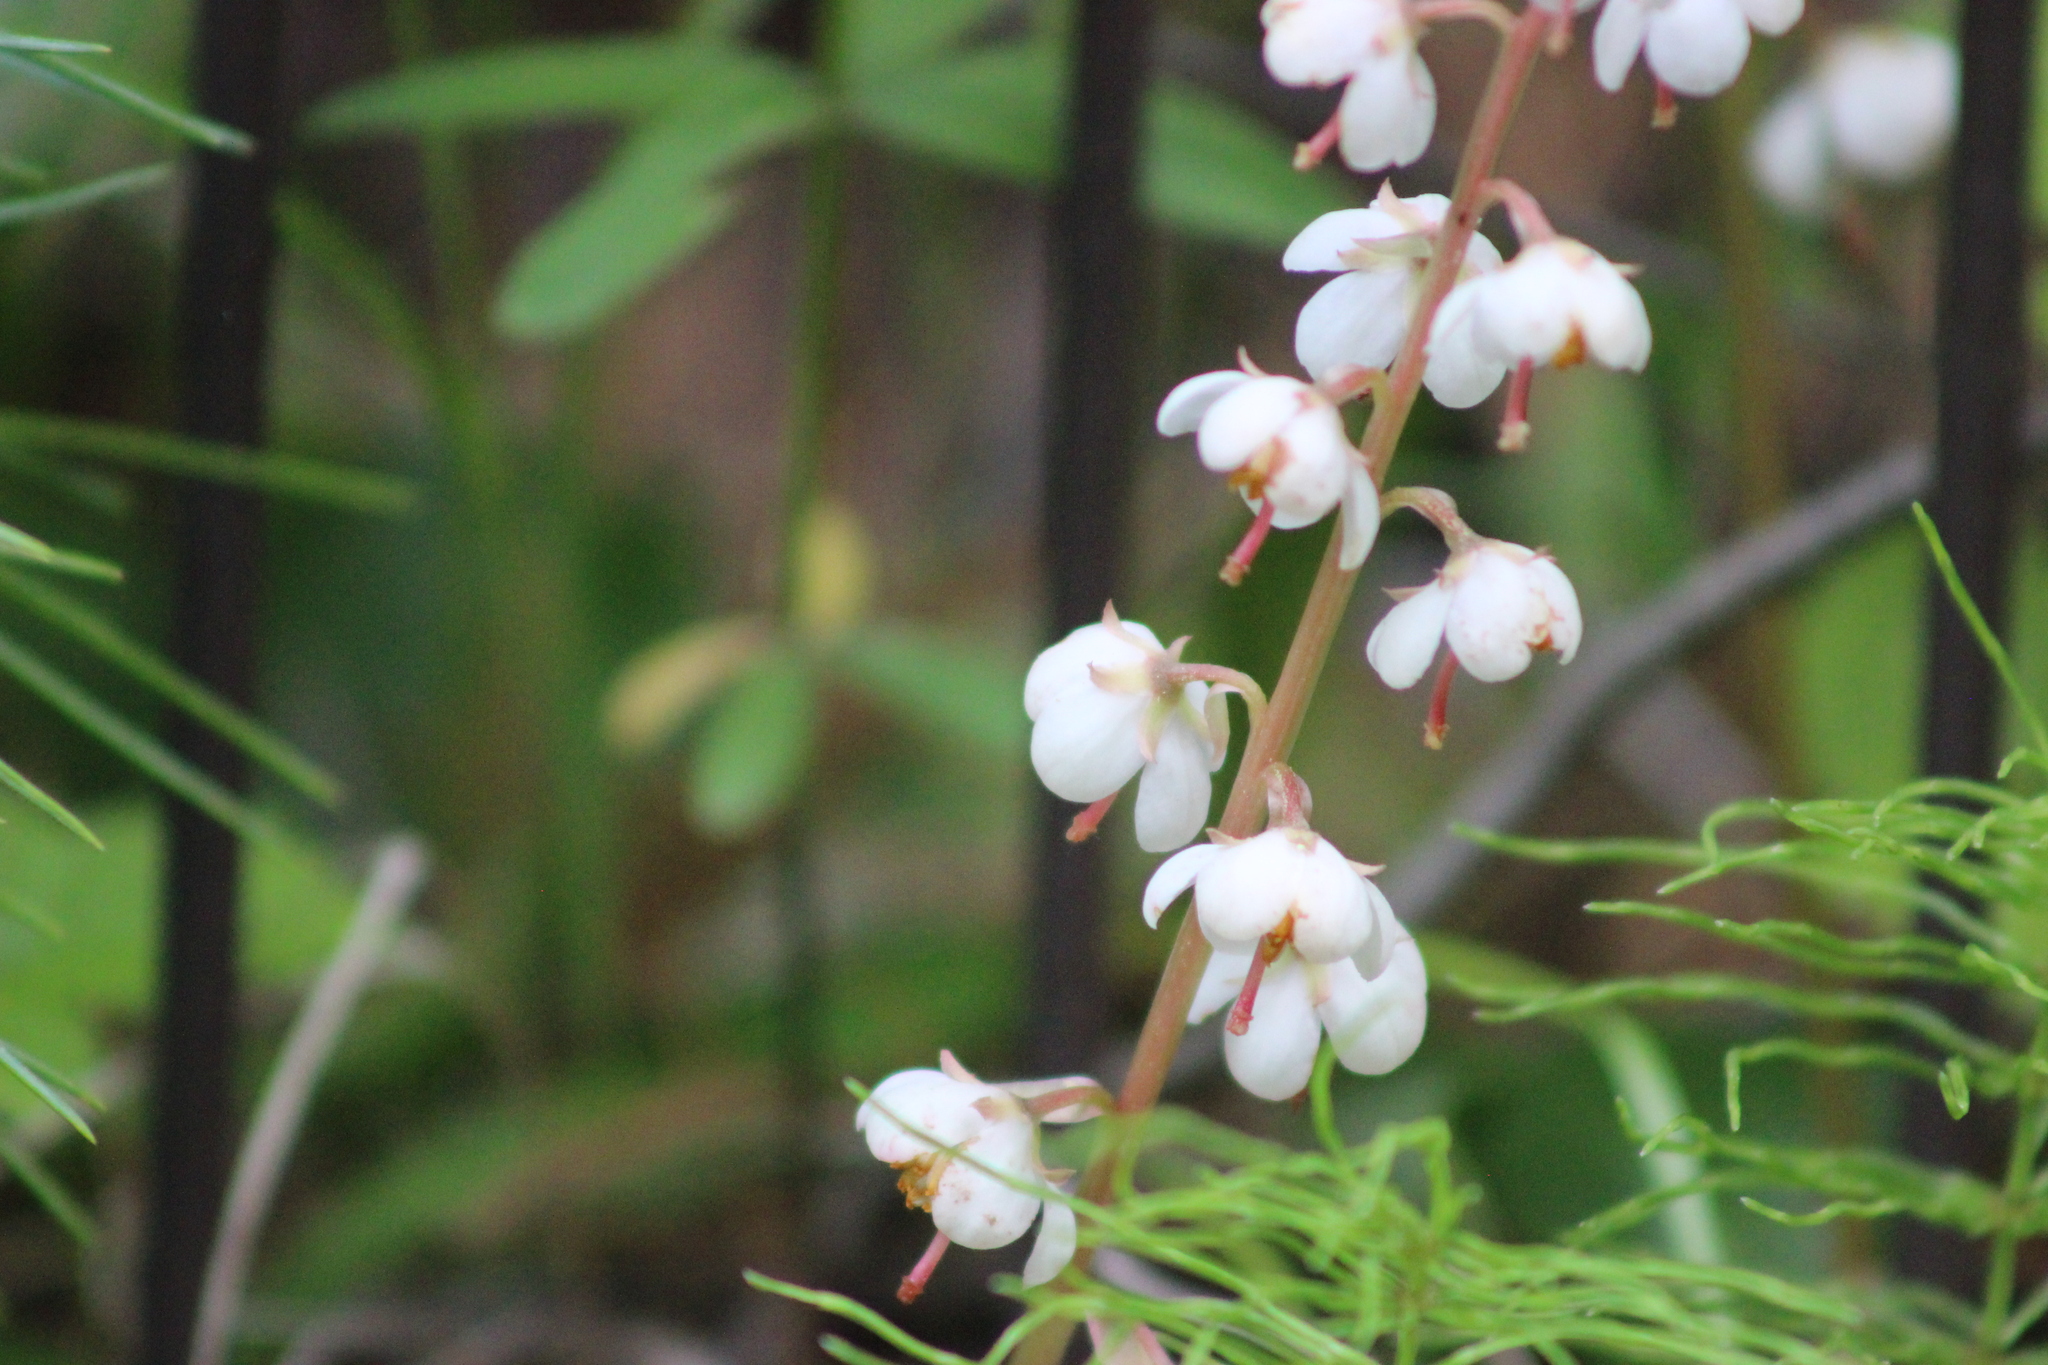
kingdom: Plantae
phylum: Tracheophyta
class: Magnoliopsida
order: Ericales
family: Ericaceae
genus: Pyrola
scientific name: Pyrola rotundifolia
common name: Round-leaved wintergreen
